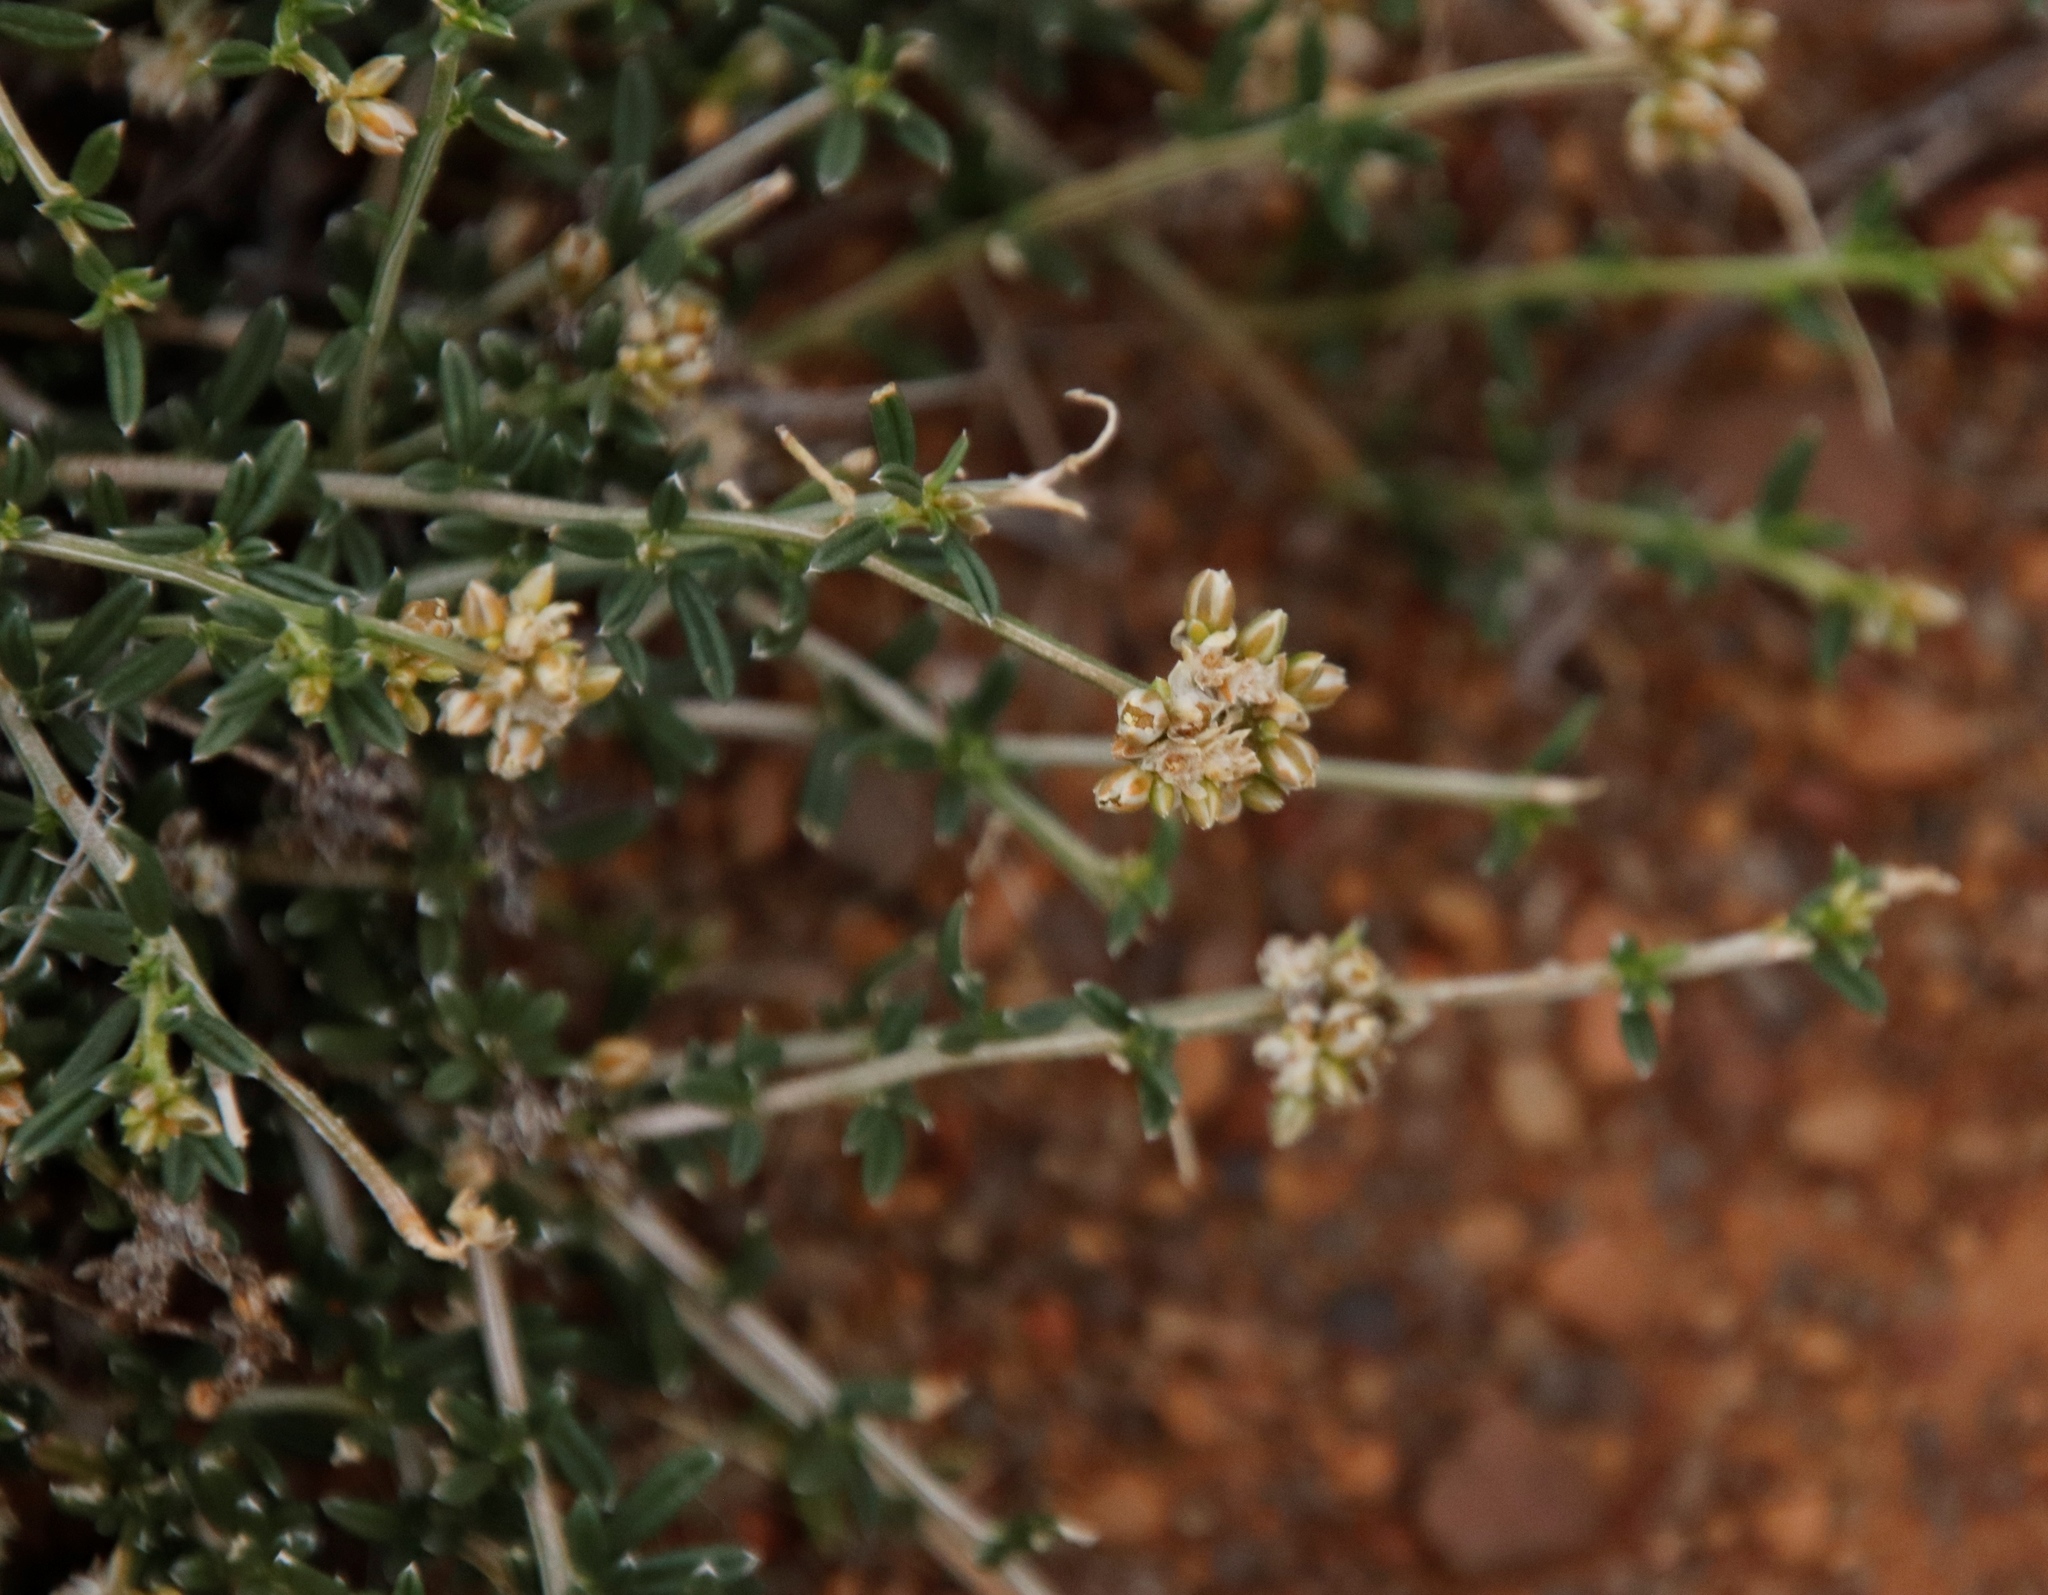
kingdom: Plantae
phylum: Tracheophyta
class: Magnoliopsida
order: Caryophyllales
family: Limeaceae
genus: Limeum
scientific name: Limeum aethiopicum
